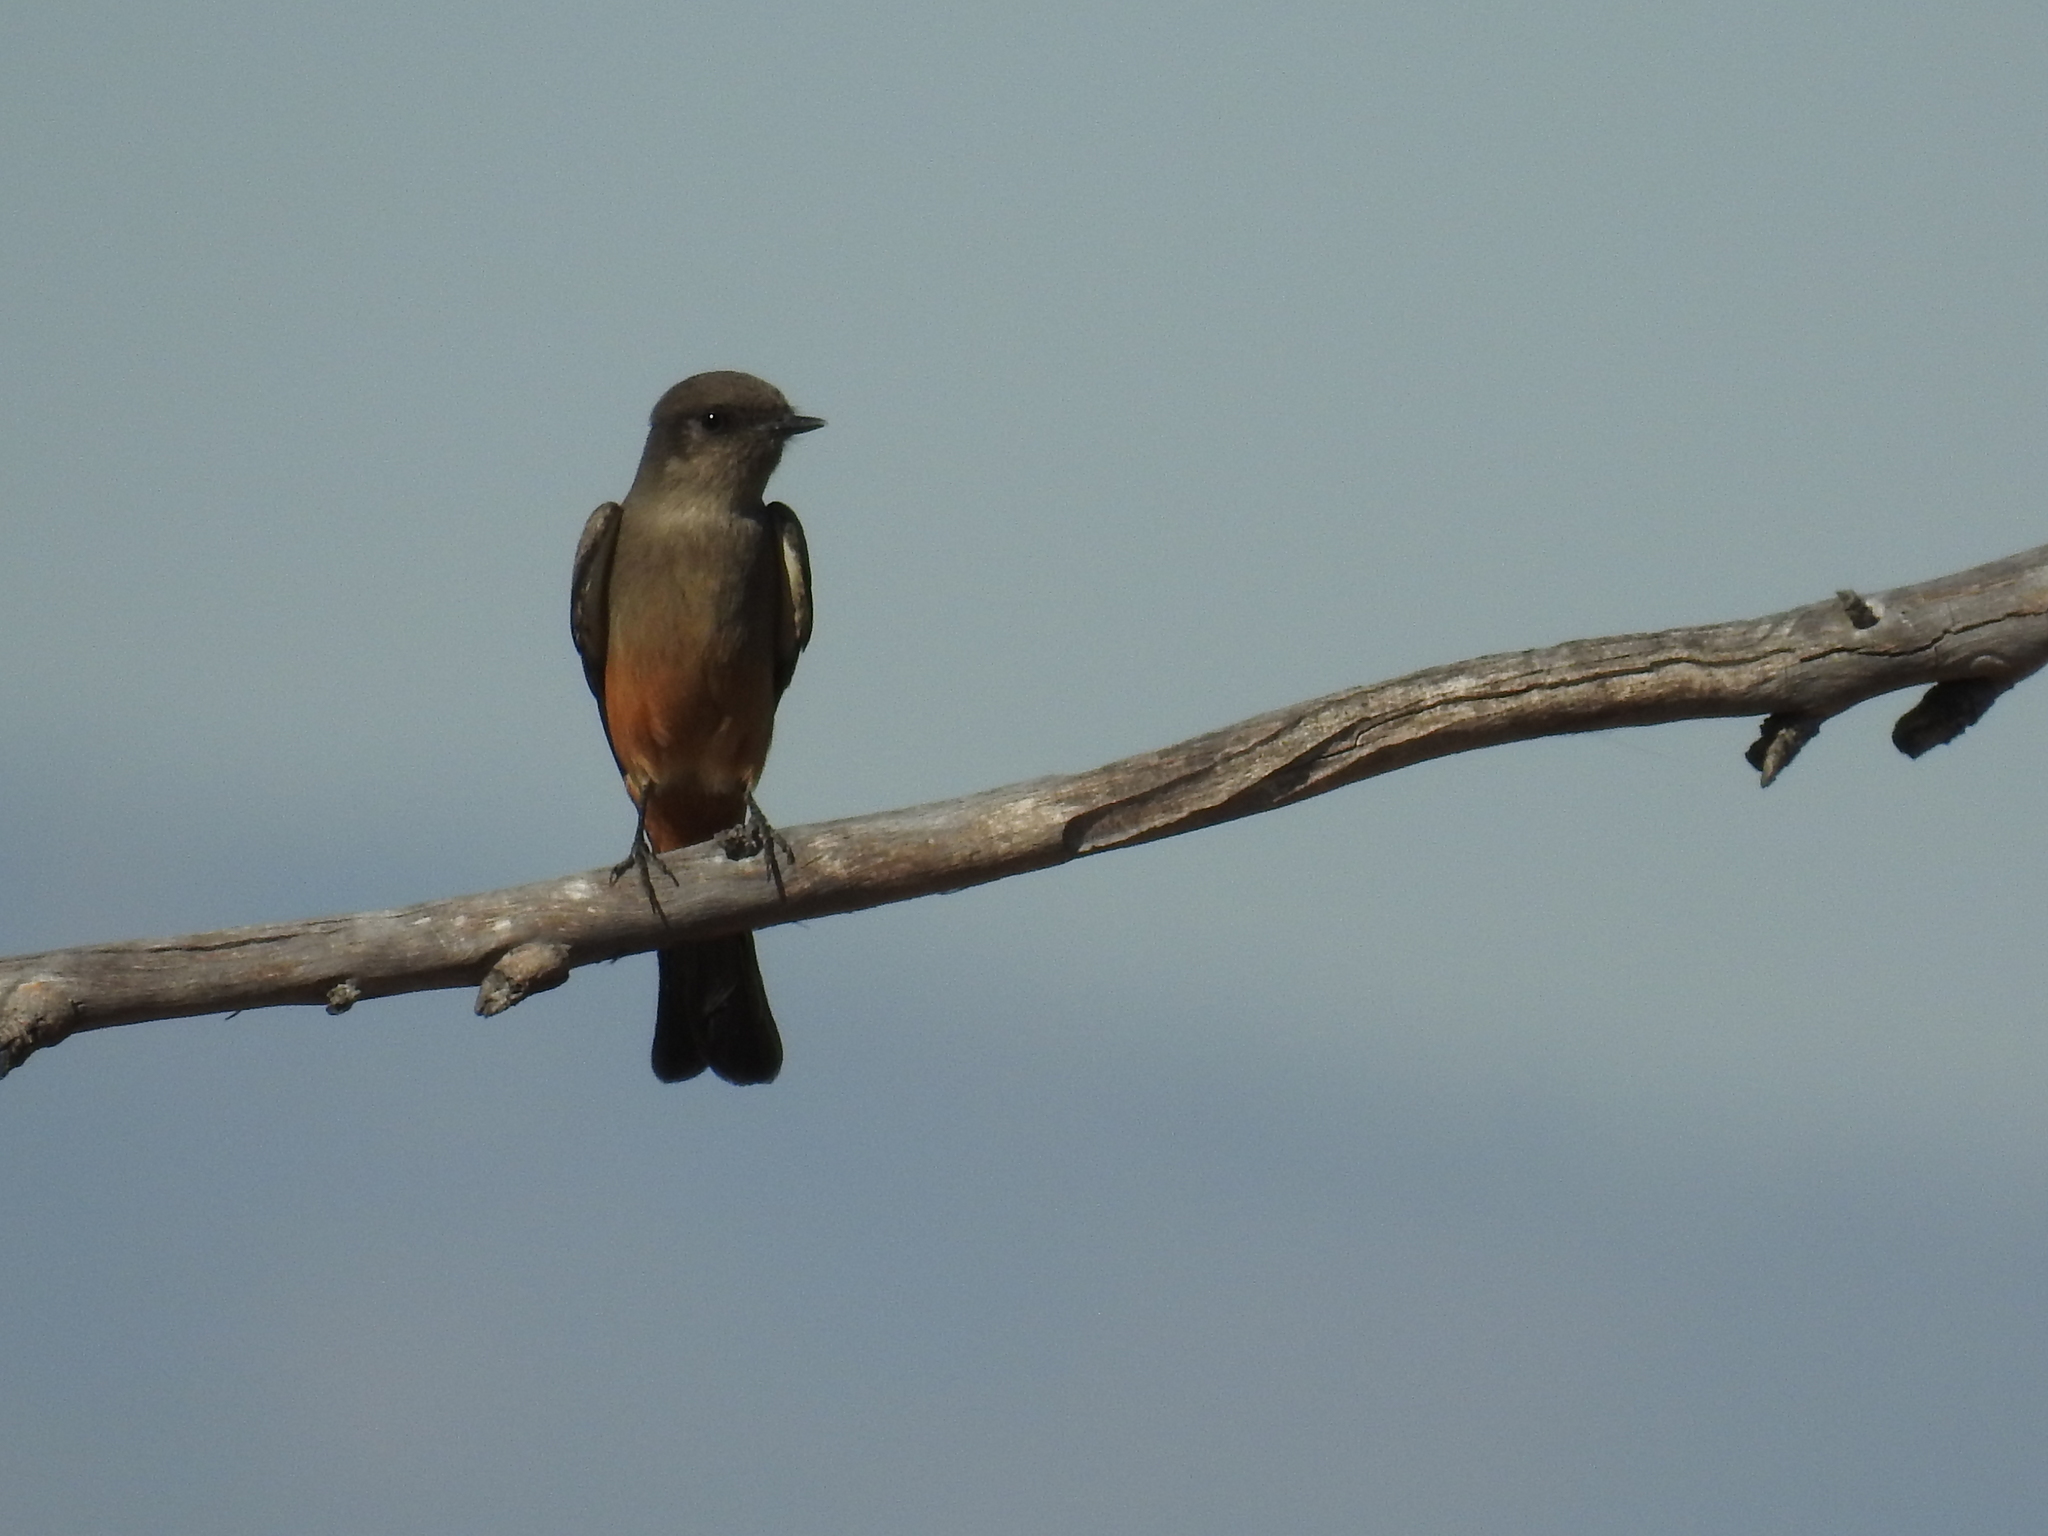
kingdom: Animalia
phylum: Chordata
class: Aves
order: Passeriformes
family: Tyrannidae
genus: Sayornis
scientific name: Sayornis saya
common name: Say's phoebe
